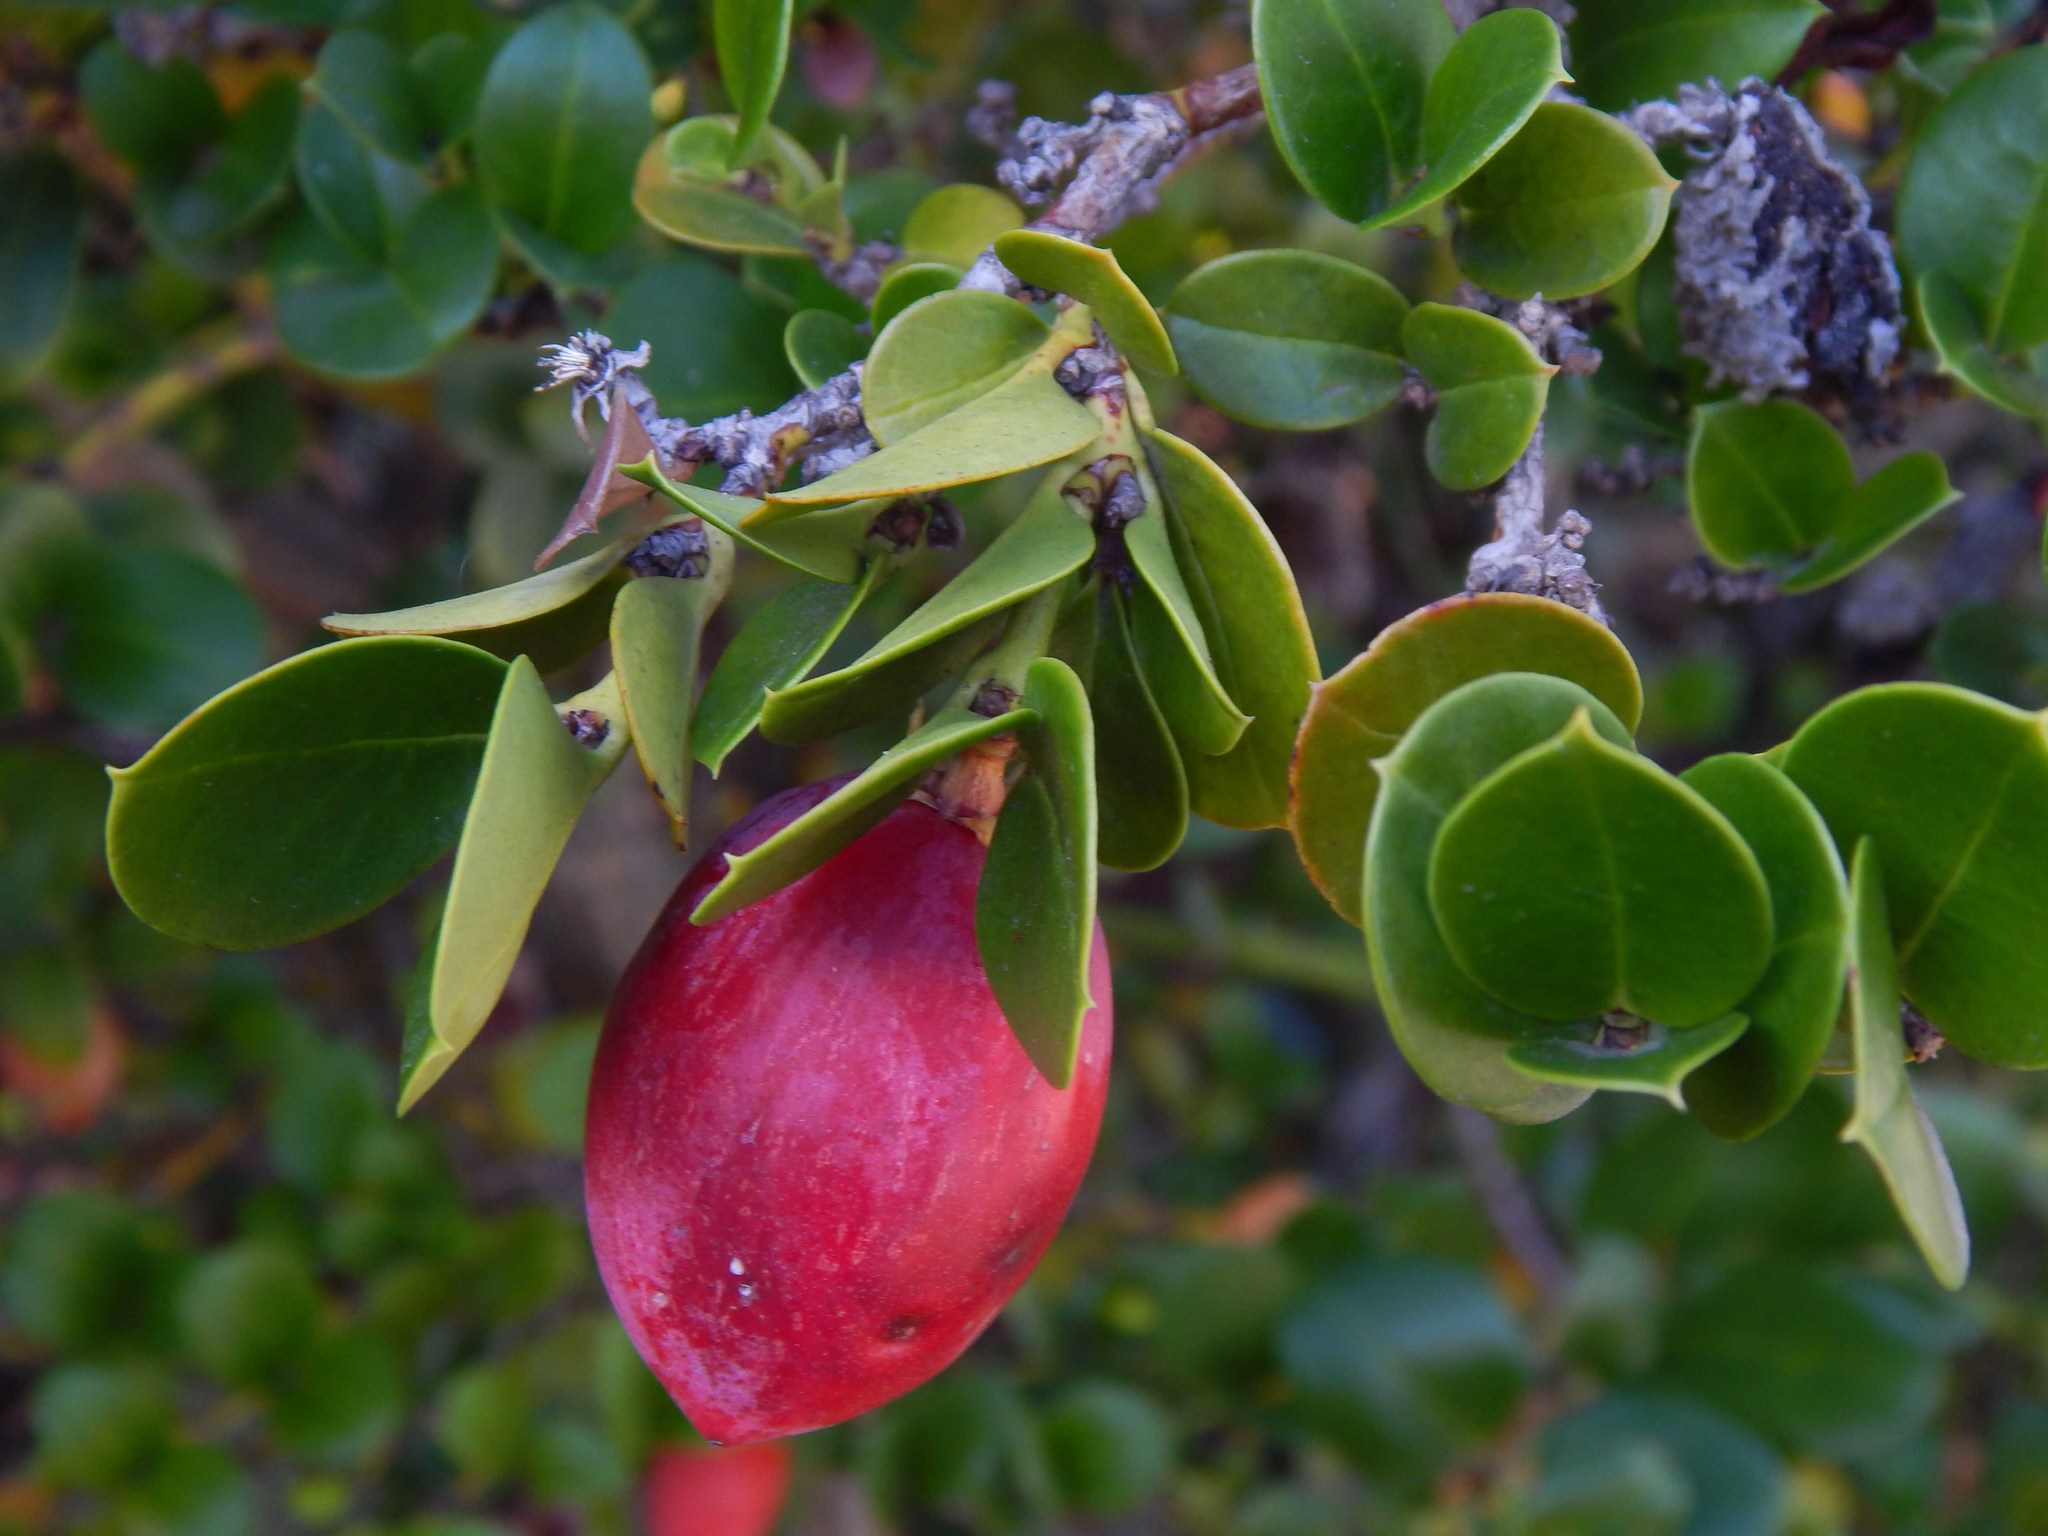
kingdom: Plantae
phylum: Tracheophyta
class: Magnoliopsida
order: Gentianales
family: Apocynaceae
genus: Carissa
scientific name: Carissa macrocarpa
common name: Natal plum
